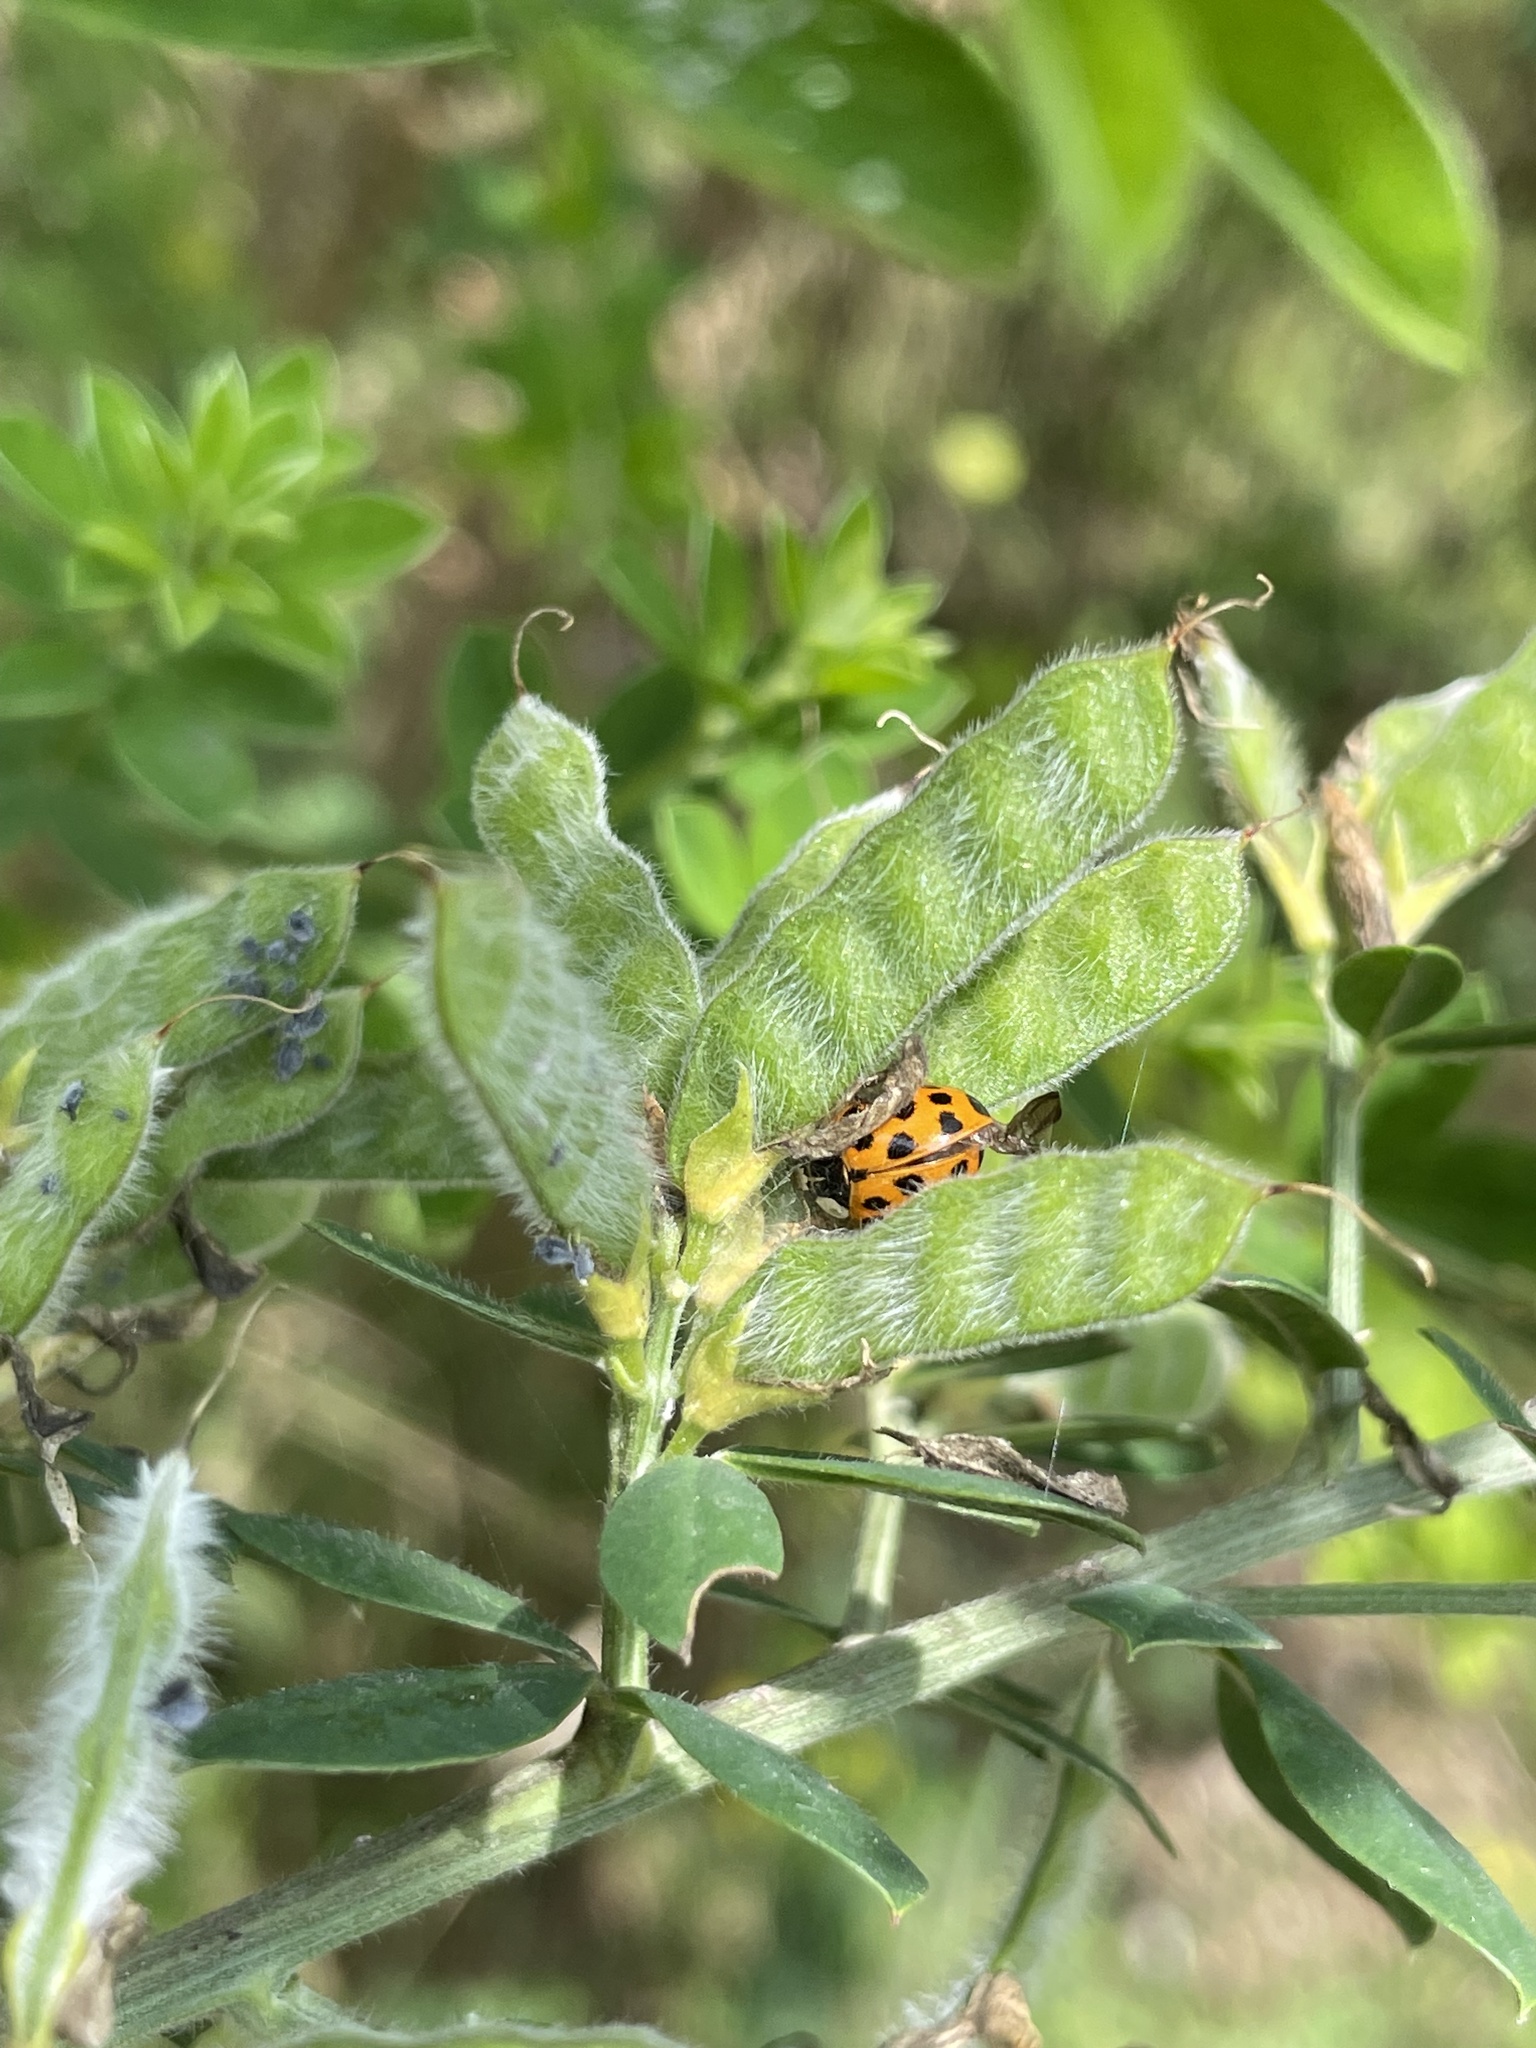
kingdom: Animalia
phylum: Arthropoda
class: Insecta
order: Coleoptera
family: Coccinellidae
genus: Harmonia
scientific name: Harmonia axyridis
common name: Harlequin ladybird
